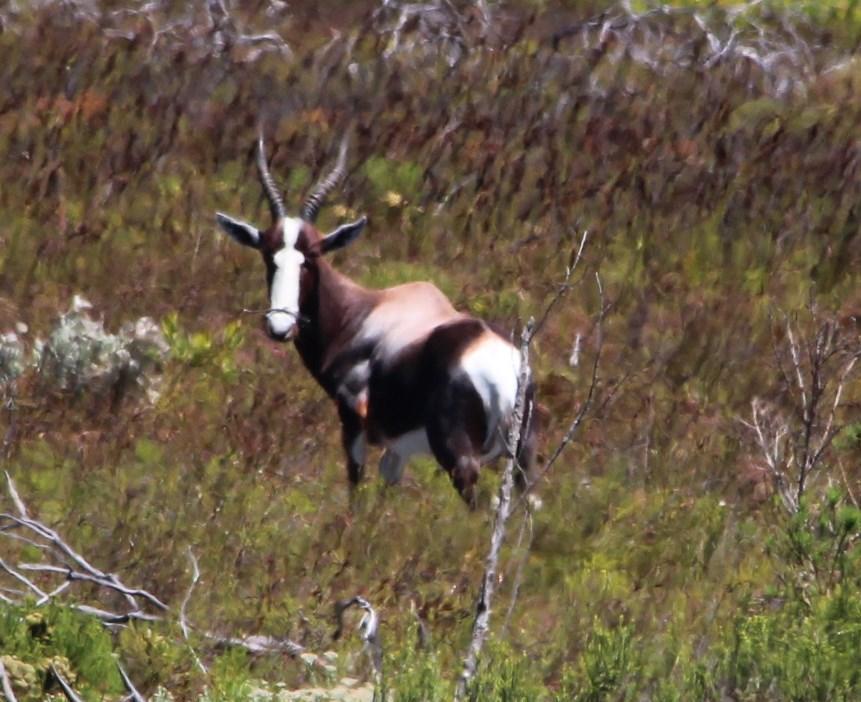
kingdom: Animalia
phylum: Chordata
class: Mammalia
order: Artiodactyla
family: Bovidae
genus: Damaliscus
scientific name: Damaliscus pygargus
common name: Bontebok
